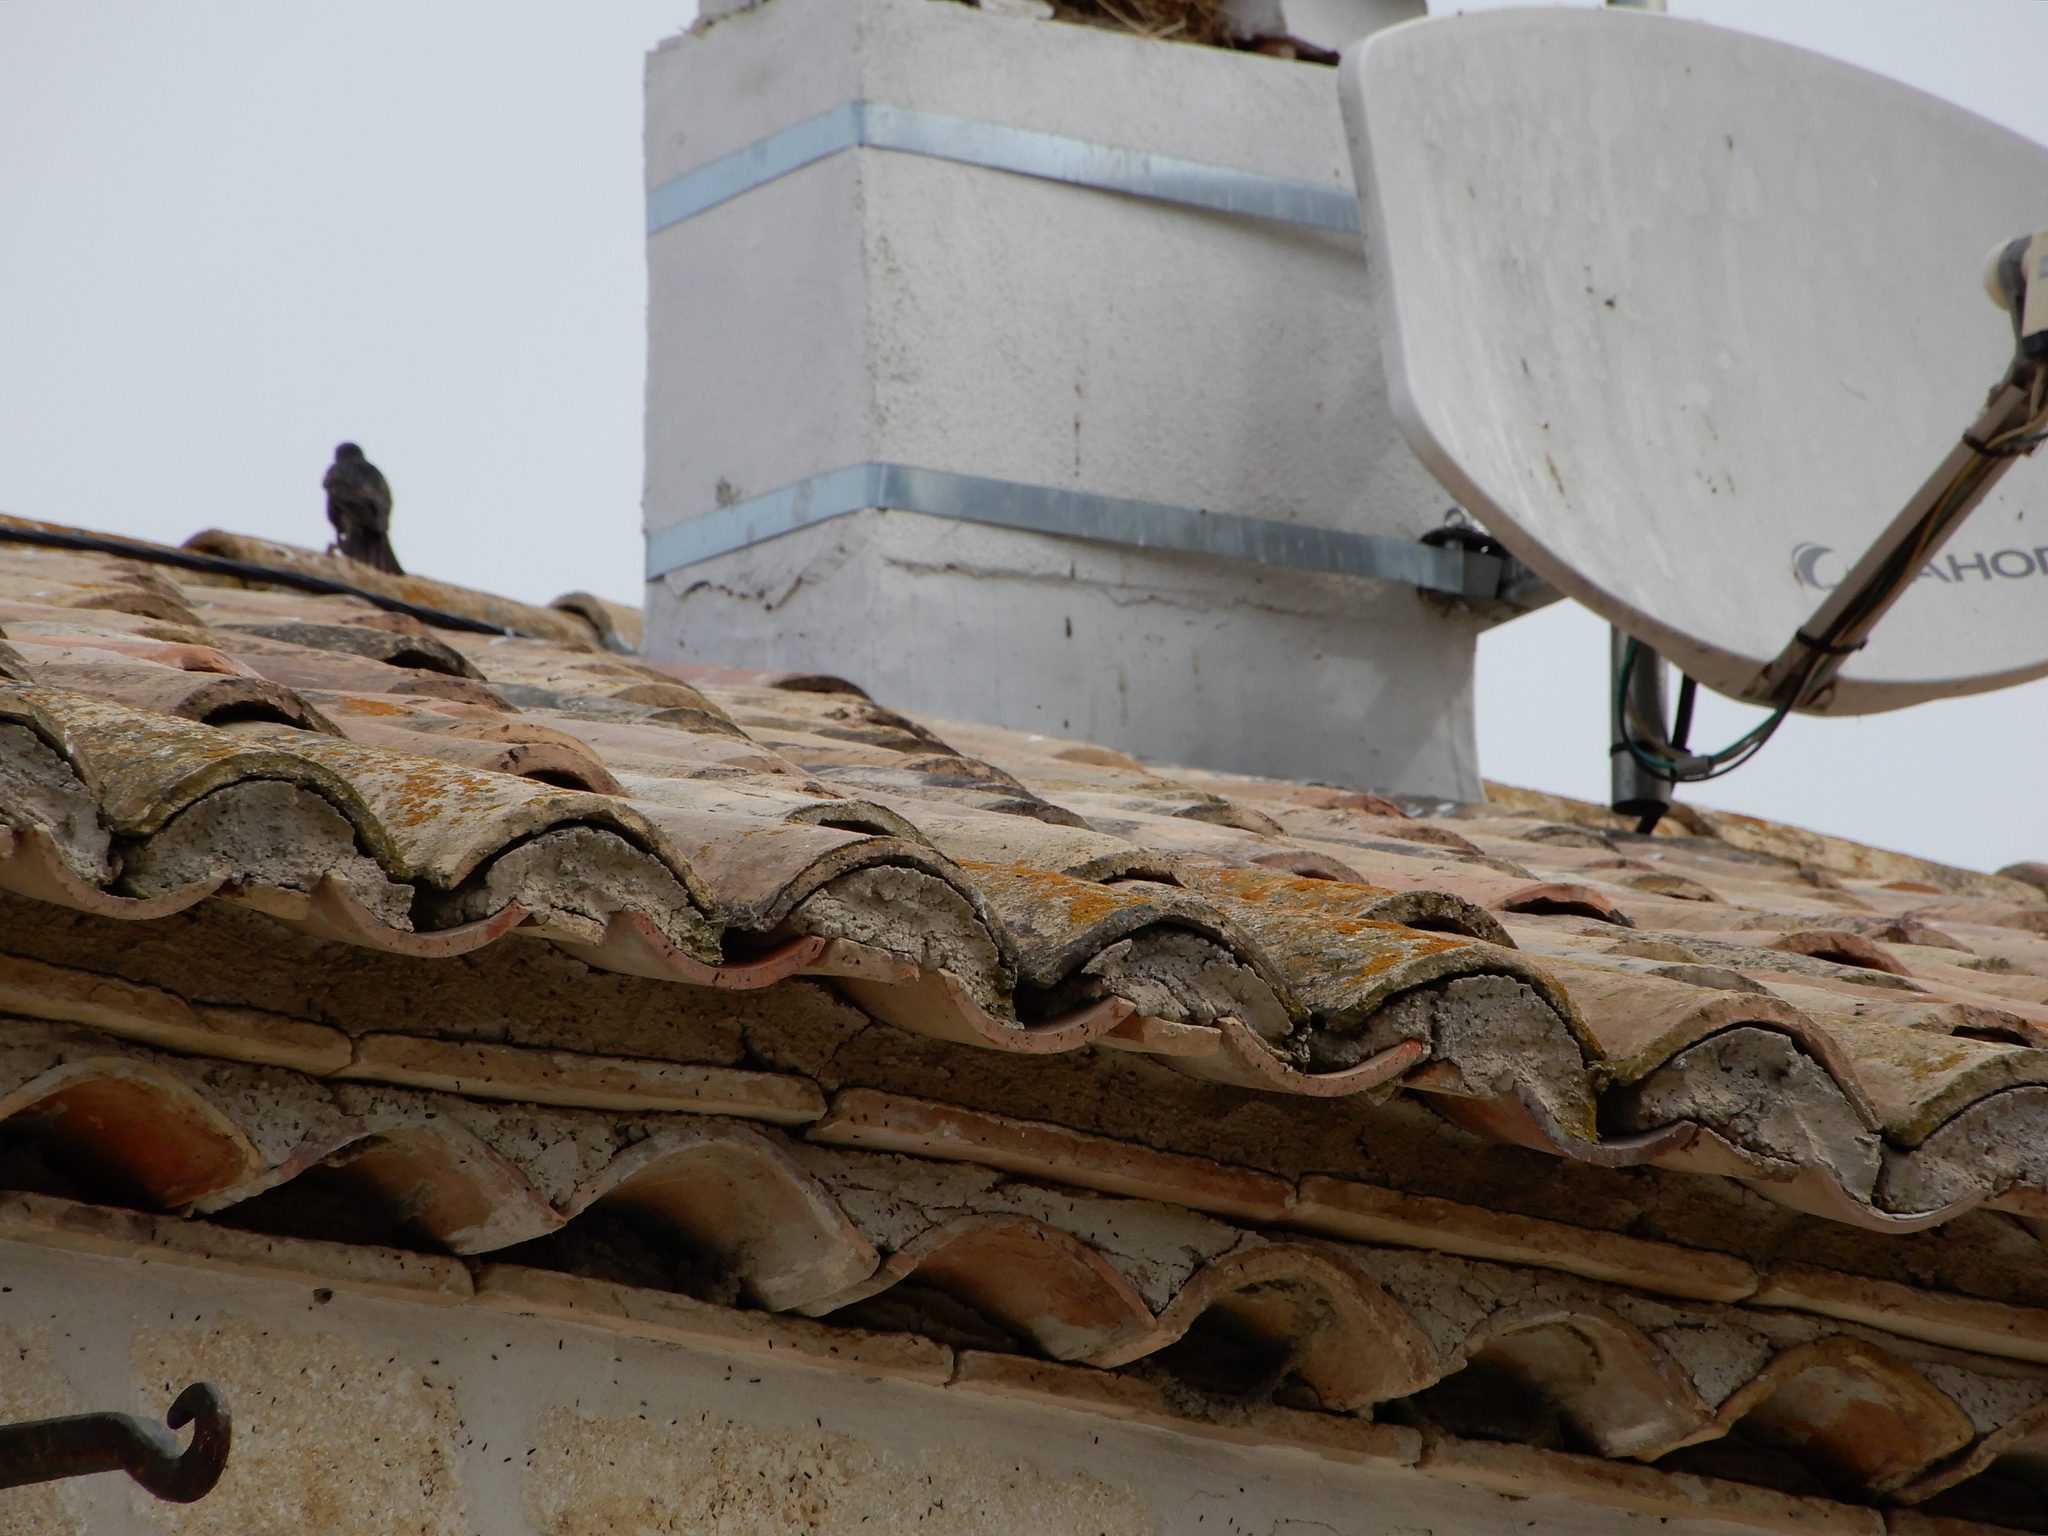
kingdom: Animalia
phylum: Chordata
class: Aves
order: Passeriformes
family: Sturnidae
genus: Sturnus
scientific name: Sturnus vulgaris
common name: Common starling
